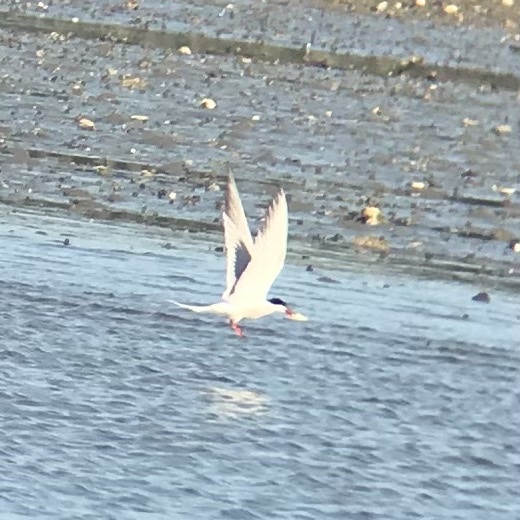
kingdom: Animalia
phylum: Chordata
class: Aves
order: Charadriiformes
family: Laridae
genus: Sterna
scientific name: Sterna hirundo
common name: Common tern
